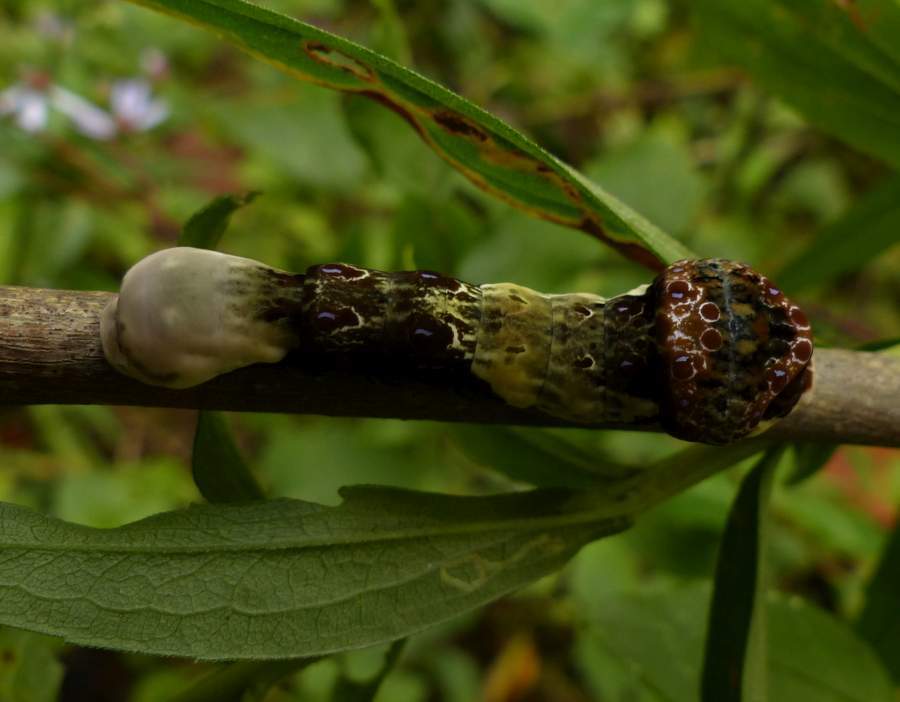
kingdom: Animalia
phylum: Arthropoda
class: Insecta
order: Lepidoptera
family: Papilionidae
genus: Papilio
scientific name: Papilio cresphontes
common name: Giant swallowtail
